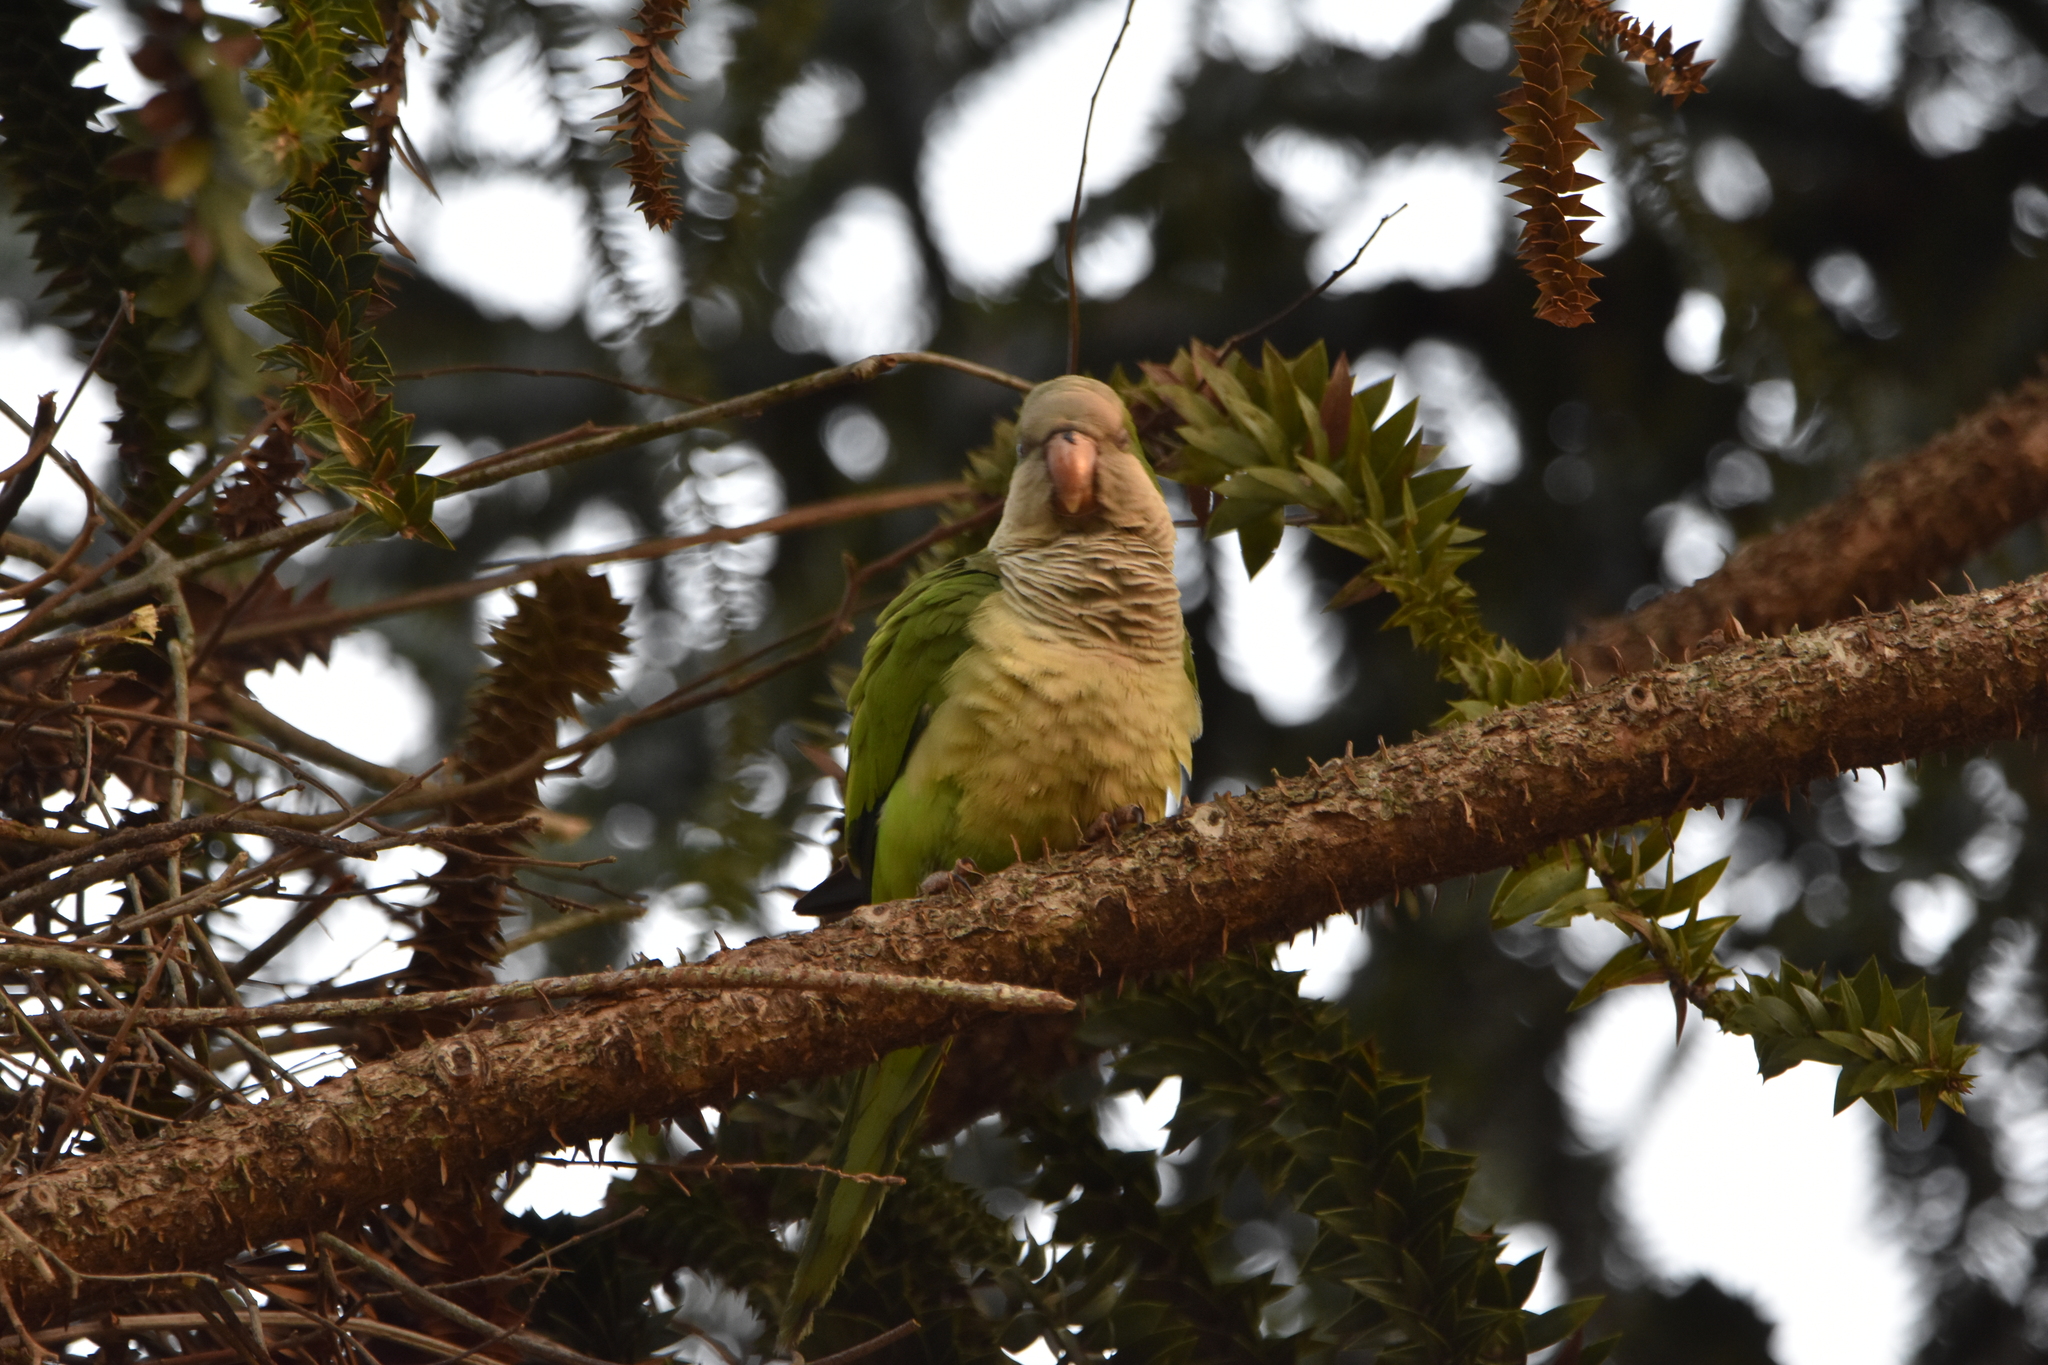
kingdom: Animalia
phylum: Chordata
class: Aves
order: Psittaciformes
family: Psittacidae
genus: Myiopsitta
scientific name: Myiopsitta monachus
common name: Monk parakeet
